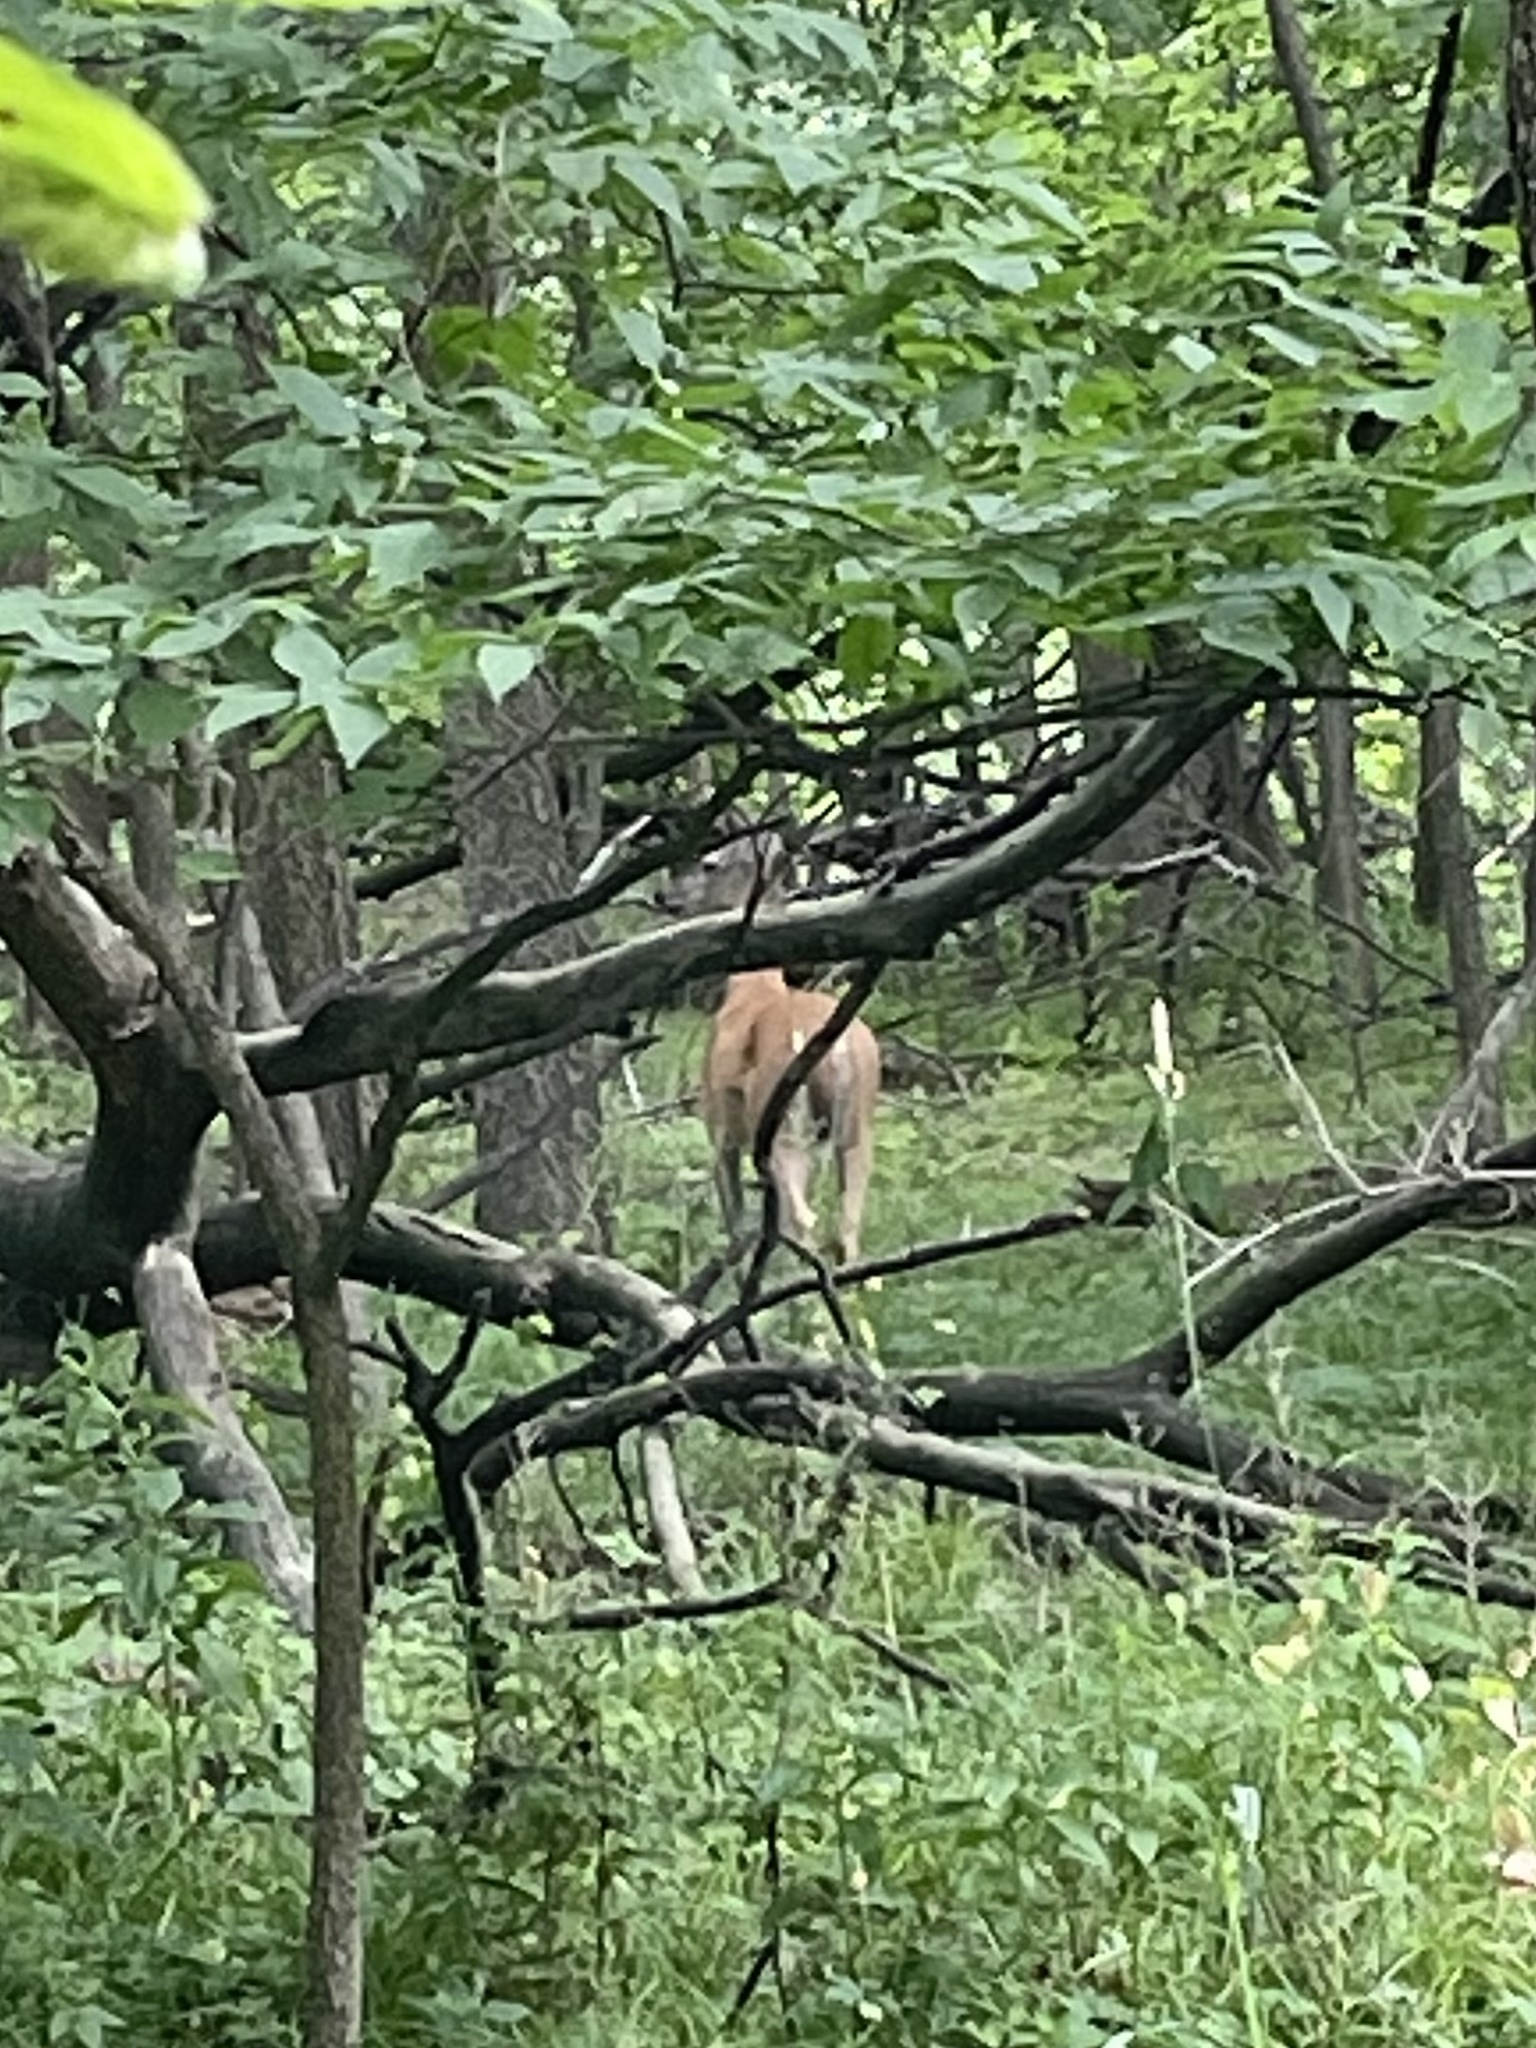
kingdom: Animalia
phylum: Chordata
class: Mammalia
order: Artiodactyla
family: Cervidae
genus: Odocoileus
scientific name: Odocoileus virginianus
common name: White-tailed deer
